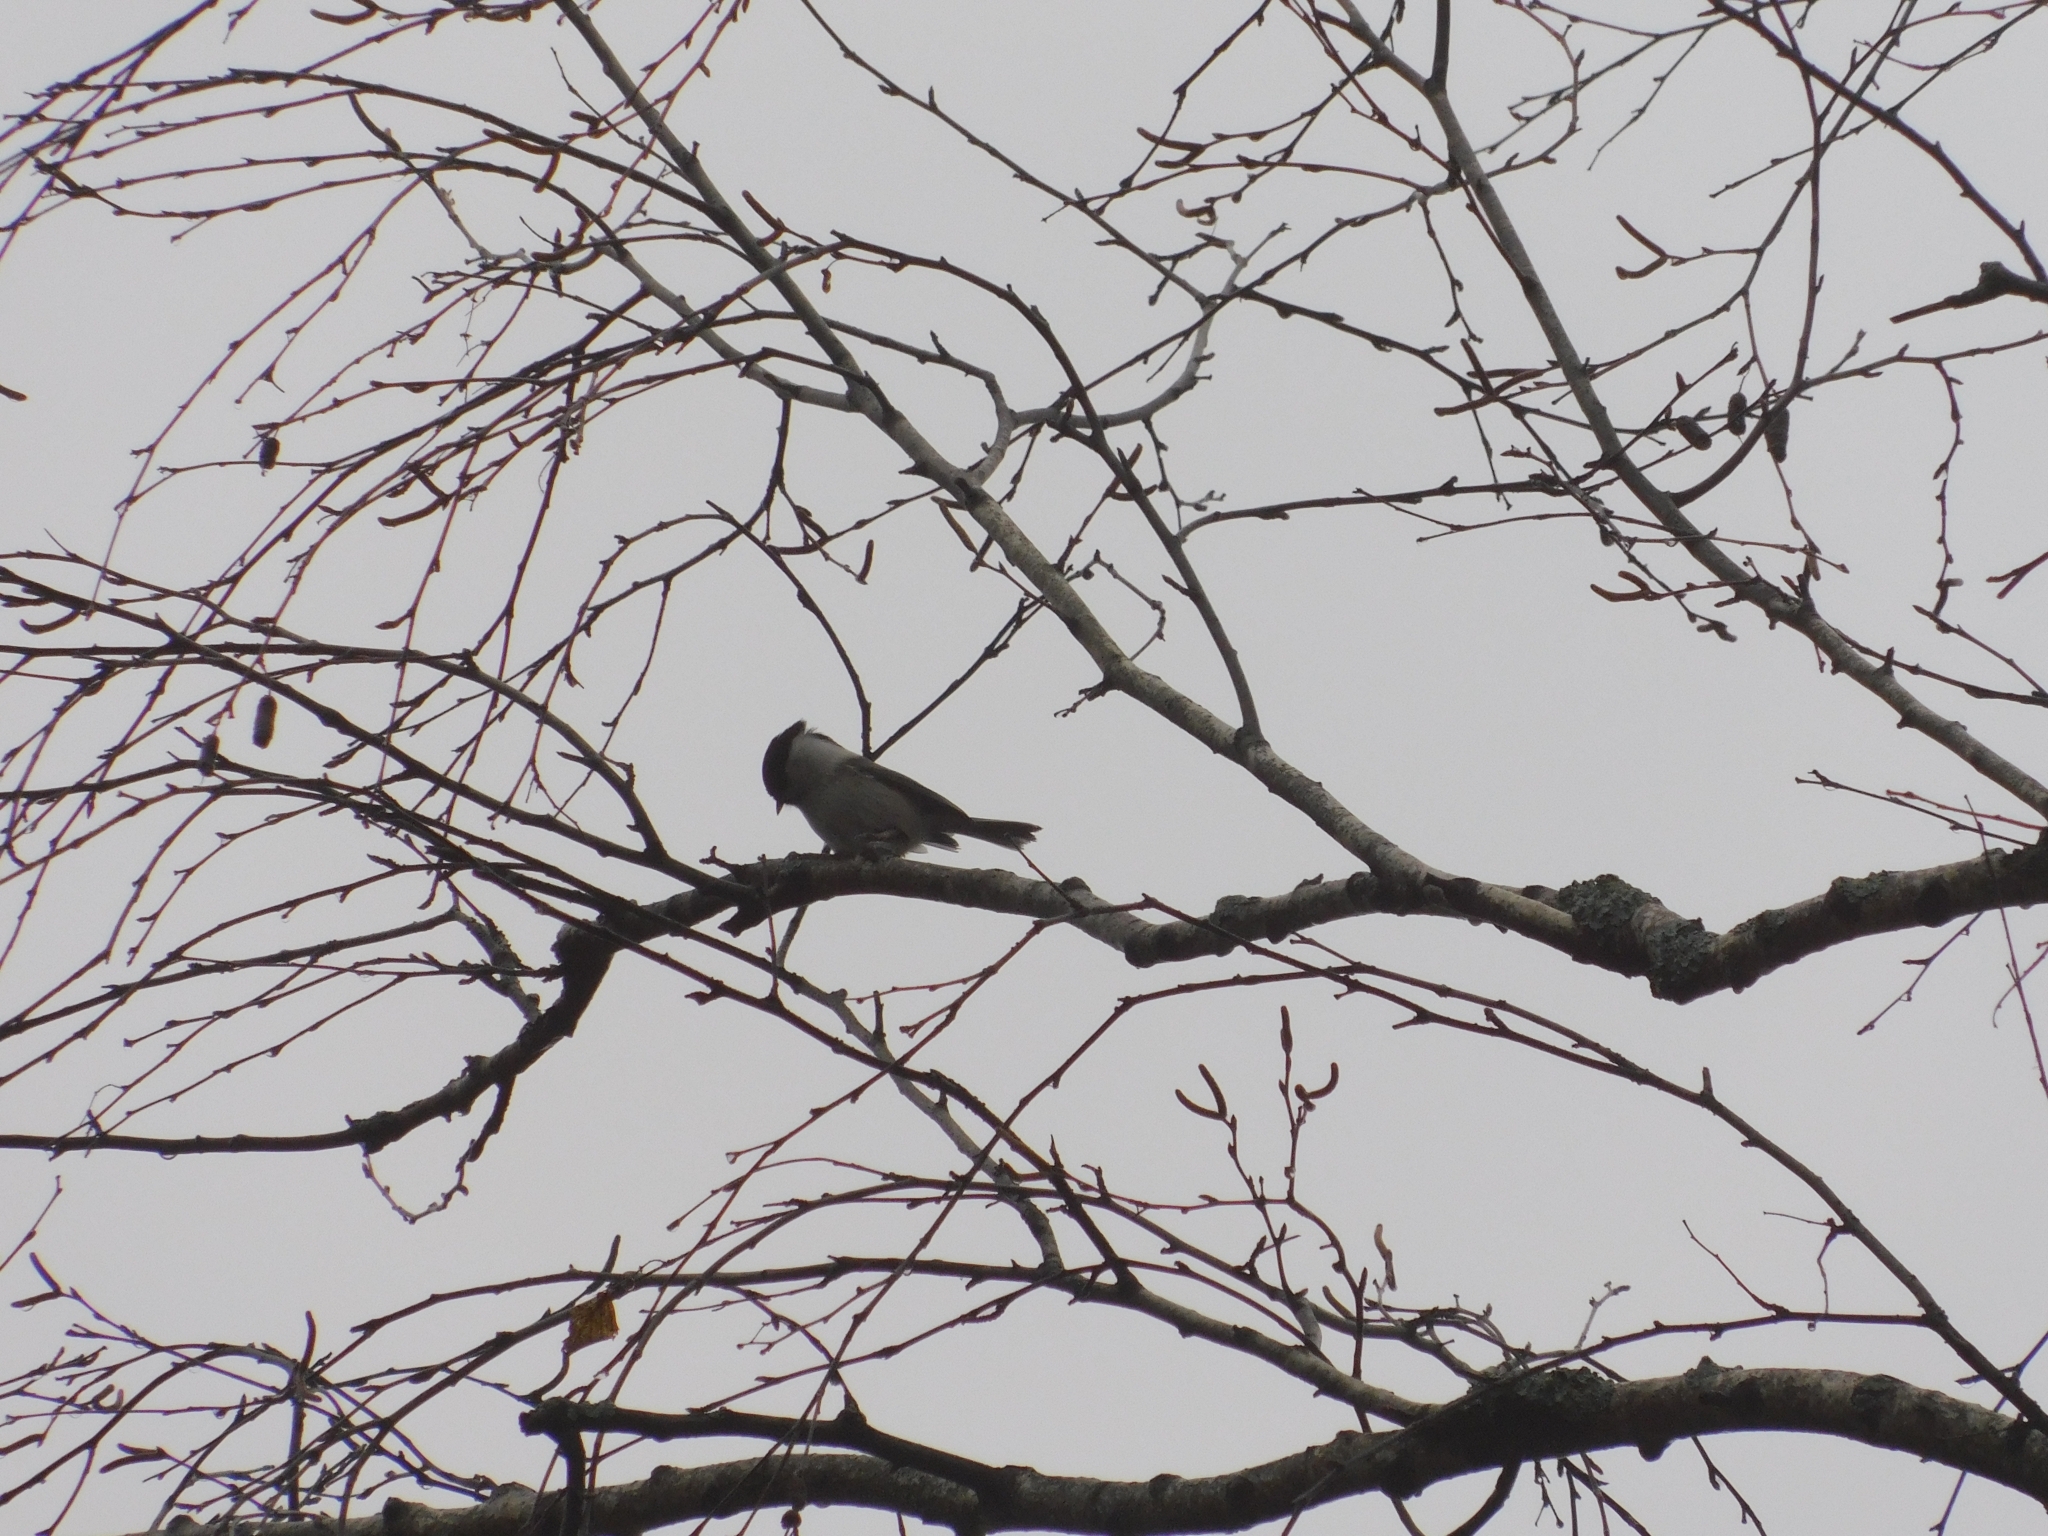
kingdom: Animalia
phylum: Chordata
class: Aves
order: Passeriformes
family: Paridae
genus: Poecile
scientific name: Poecile montanus
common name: Willow tit
